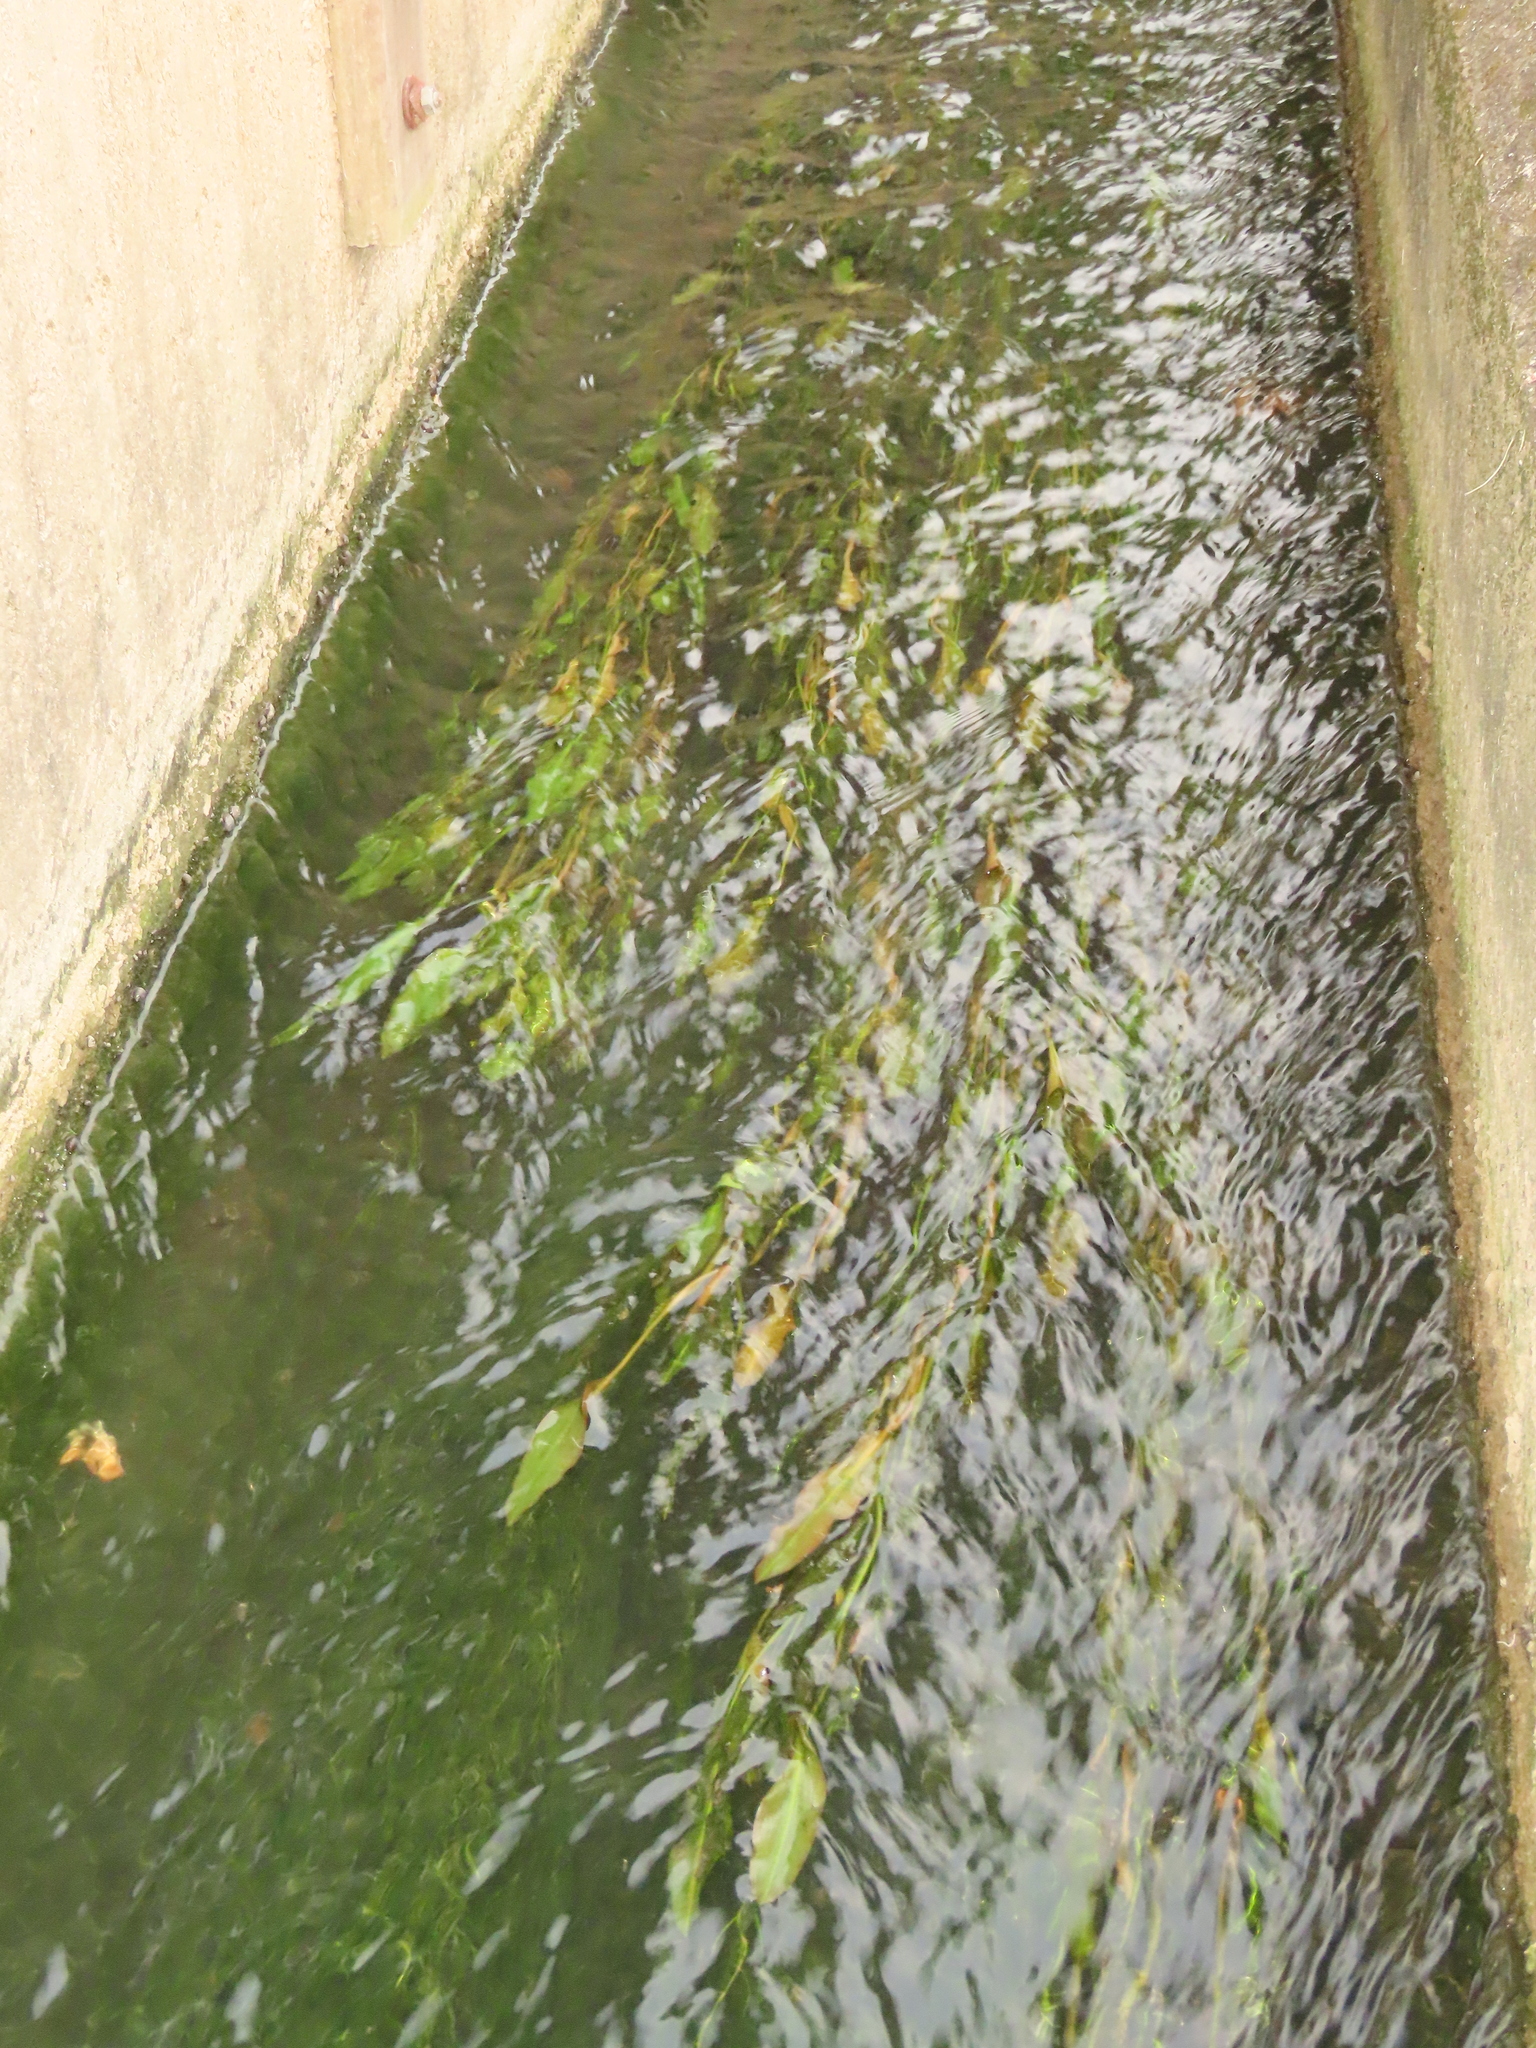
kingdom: Plantae
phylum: Tracheophyta
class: Liliopsida
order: Alismatales
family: Potamogetonaceae
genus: Potamogeton
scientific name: Potamogeton wrightii
